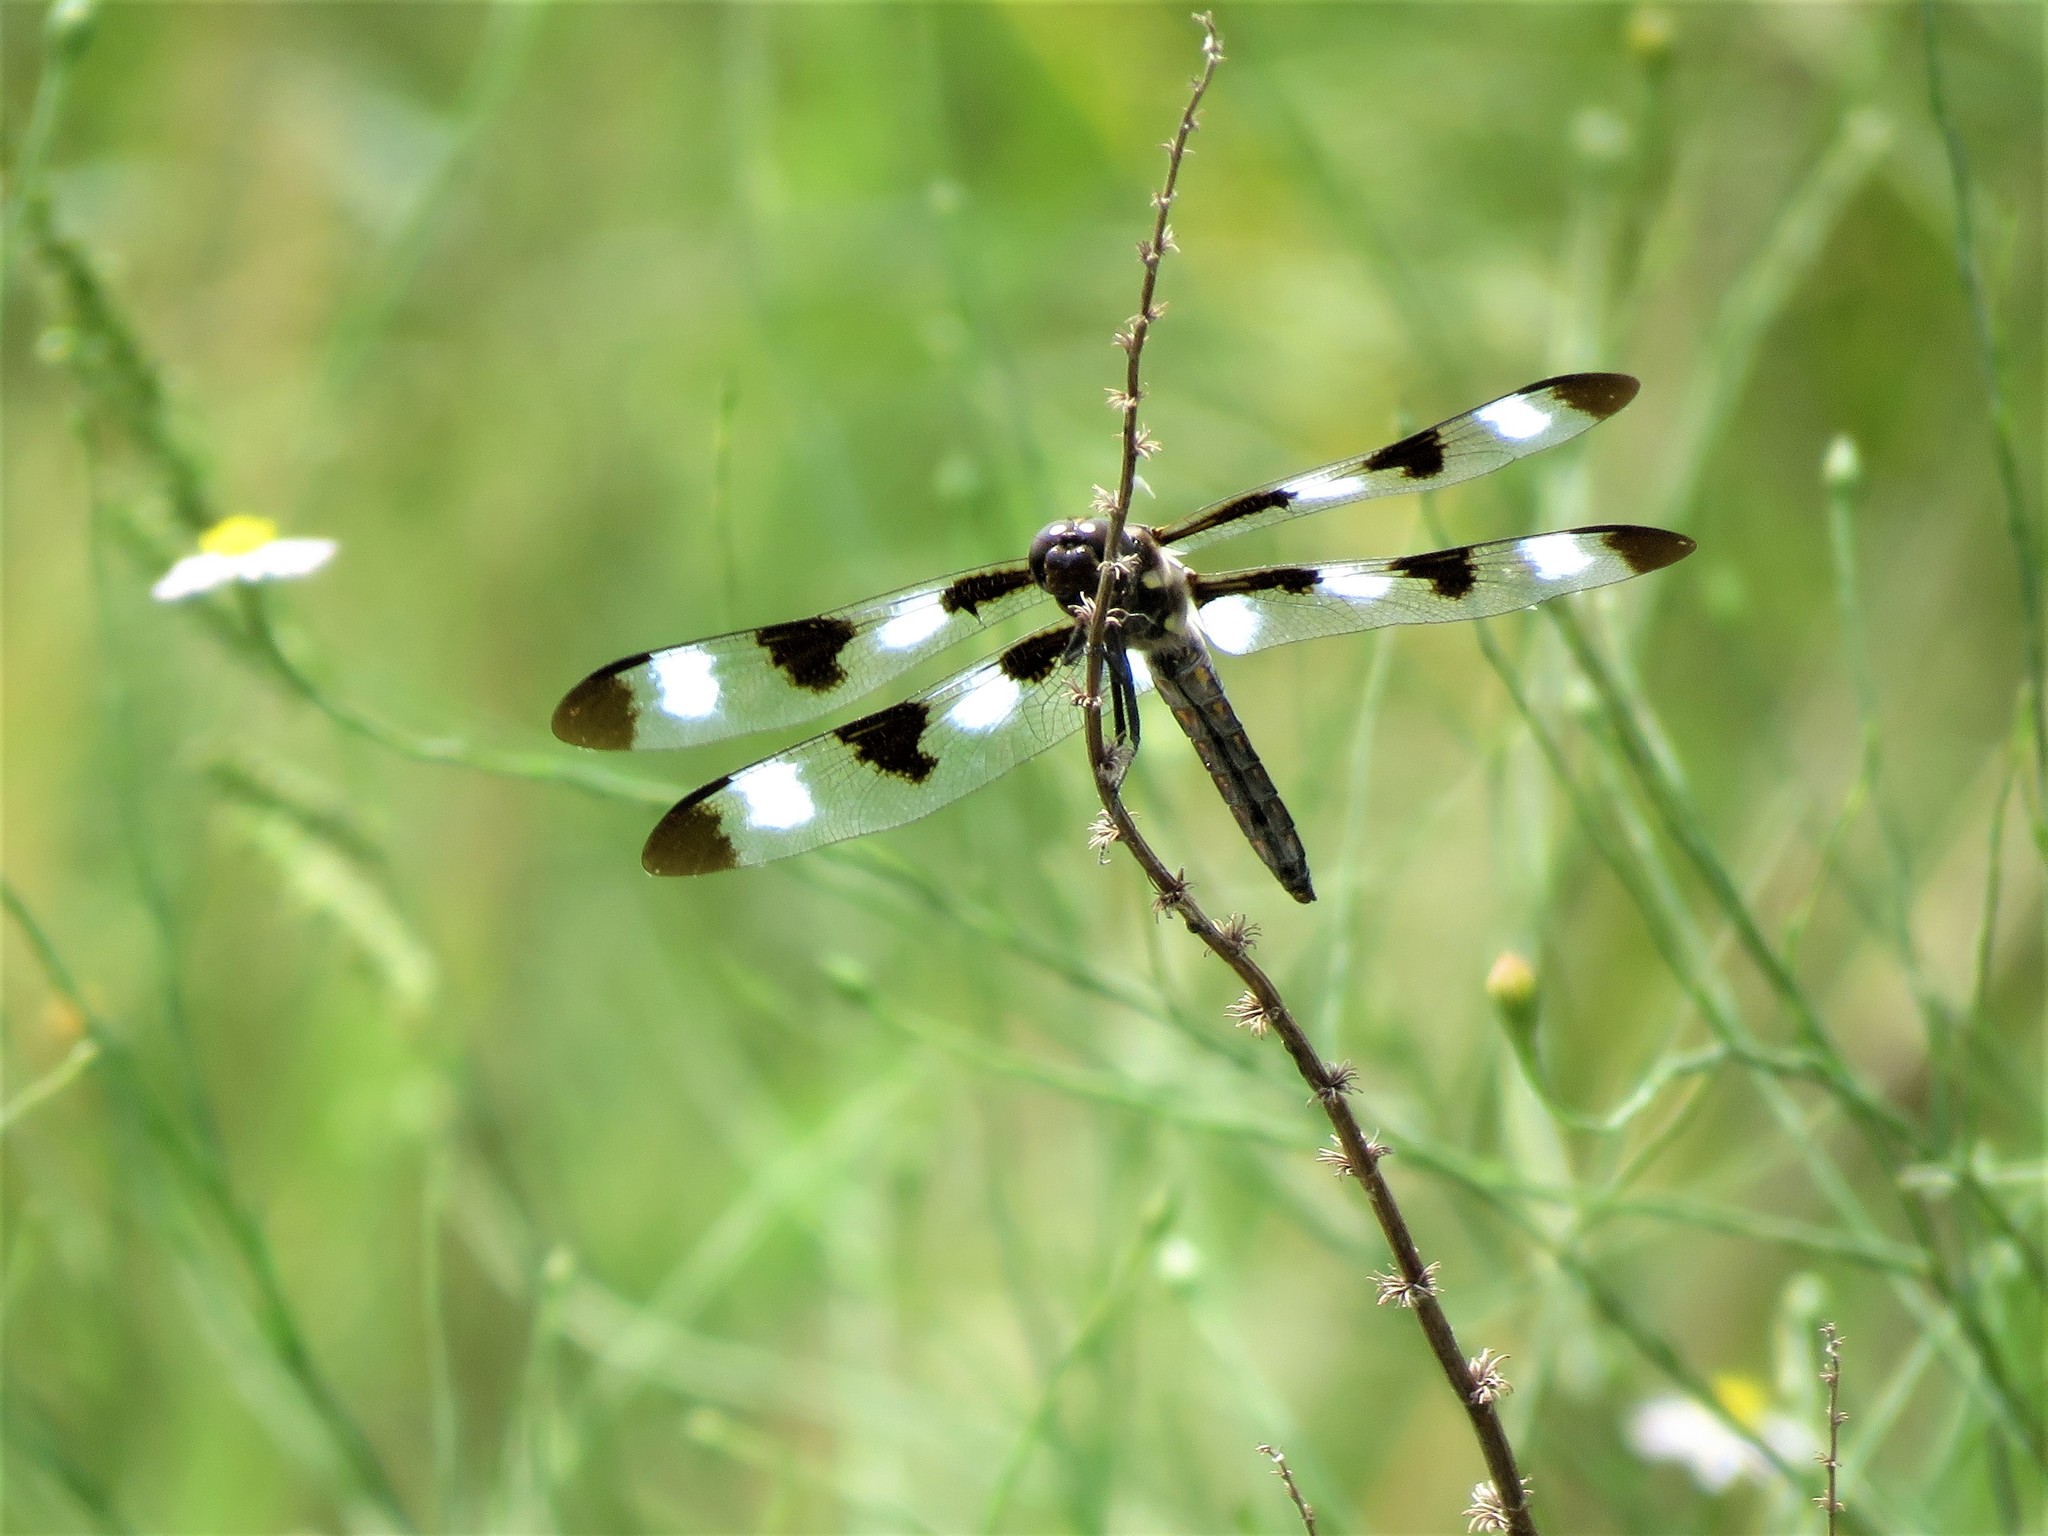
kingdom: Animalia
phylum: Arthropoda
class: Insecta
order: Odonata
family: Libellulidae
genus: Libellula
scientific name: Libellula pulchella
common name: Twelve-spotted skimmer
